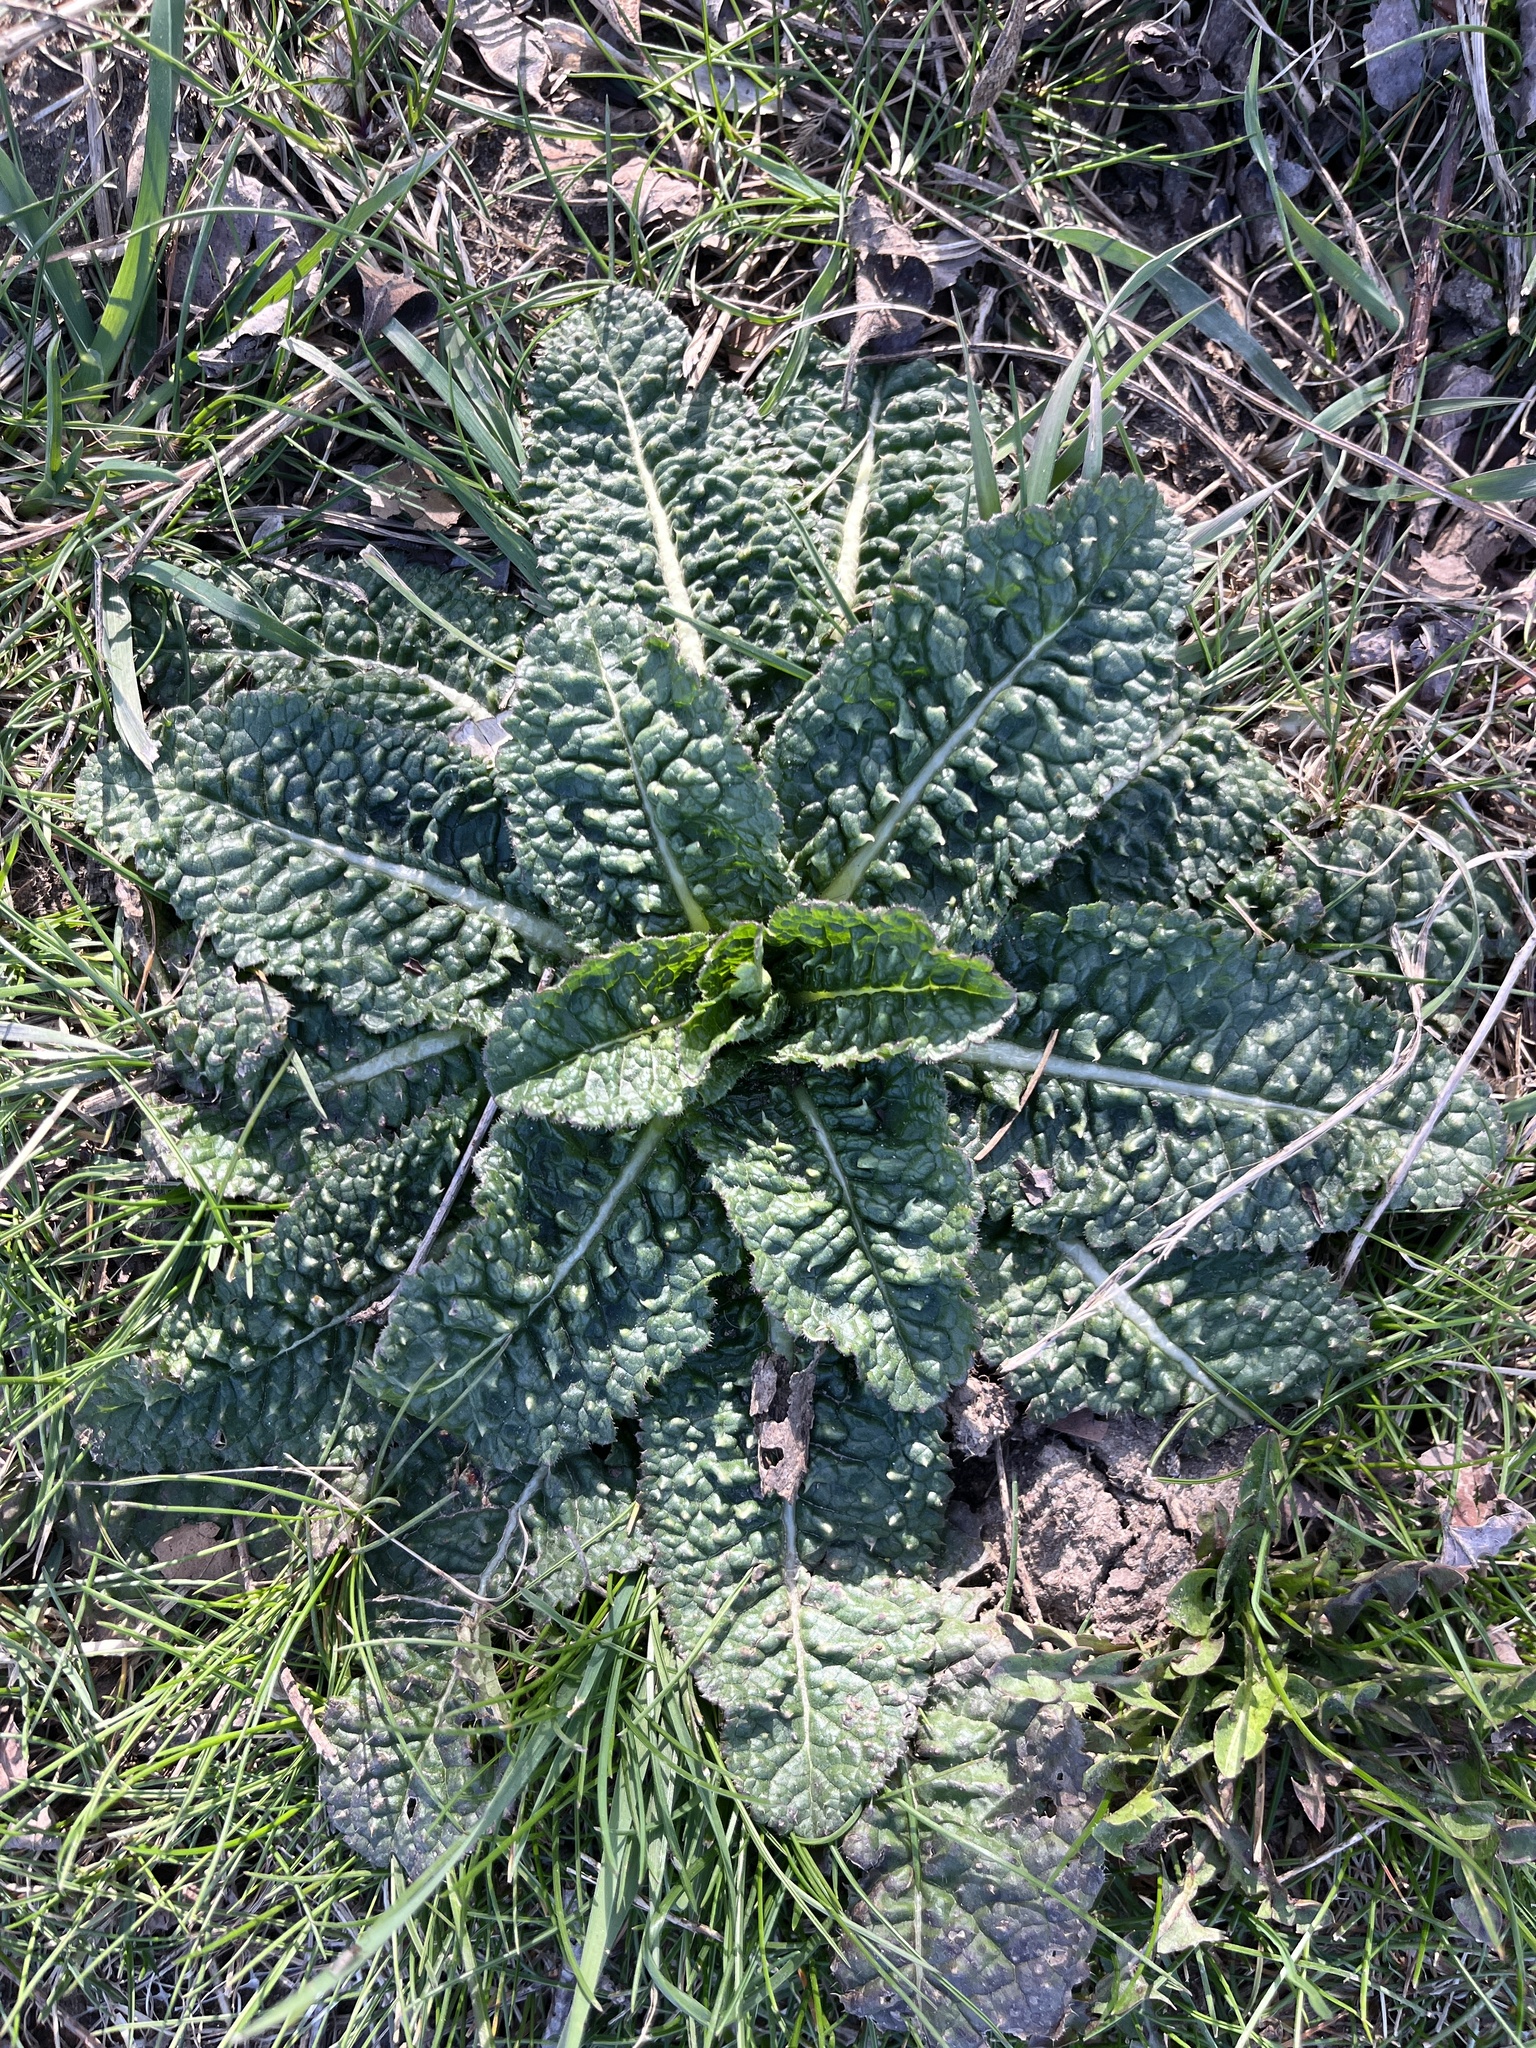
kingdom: Plantae
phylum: Tracheophyta
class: Magnoliopsida
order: Dipsacales
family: Caprifoliaceae
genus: Dipsacus
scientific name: Dipsacus fullonum
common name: Teasel
